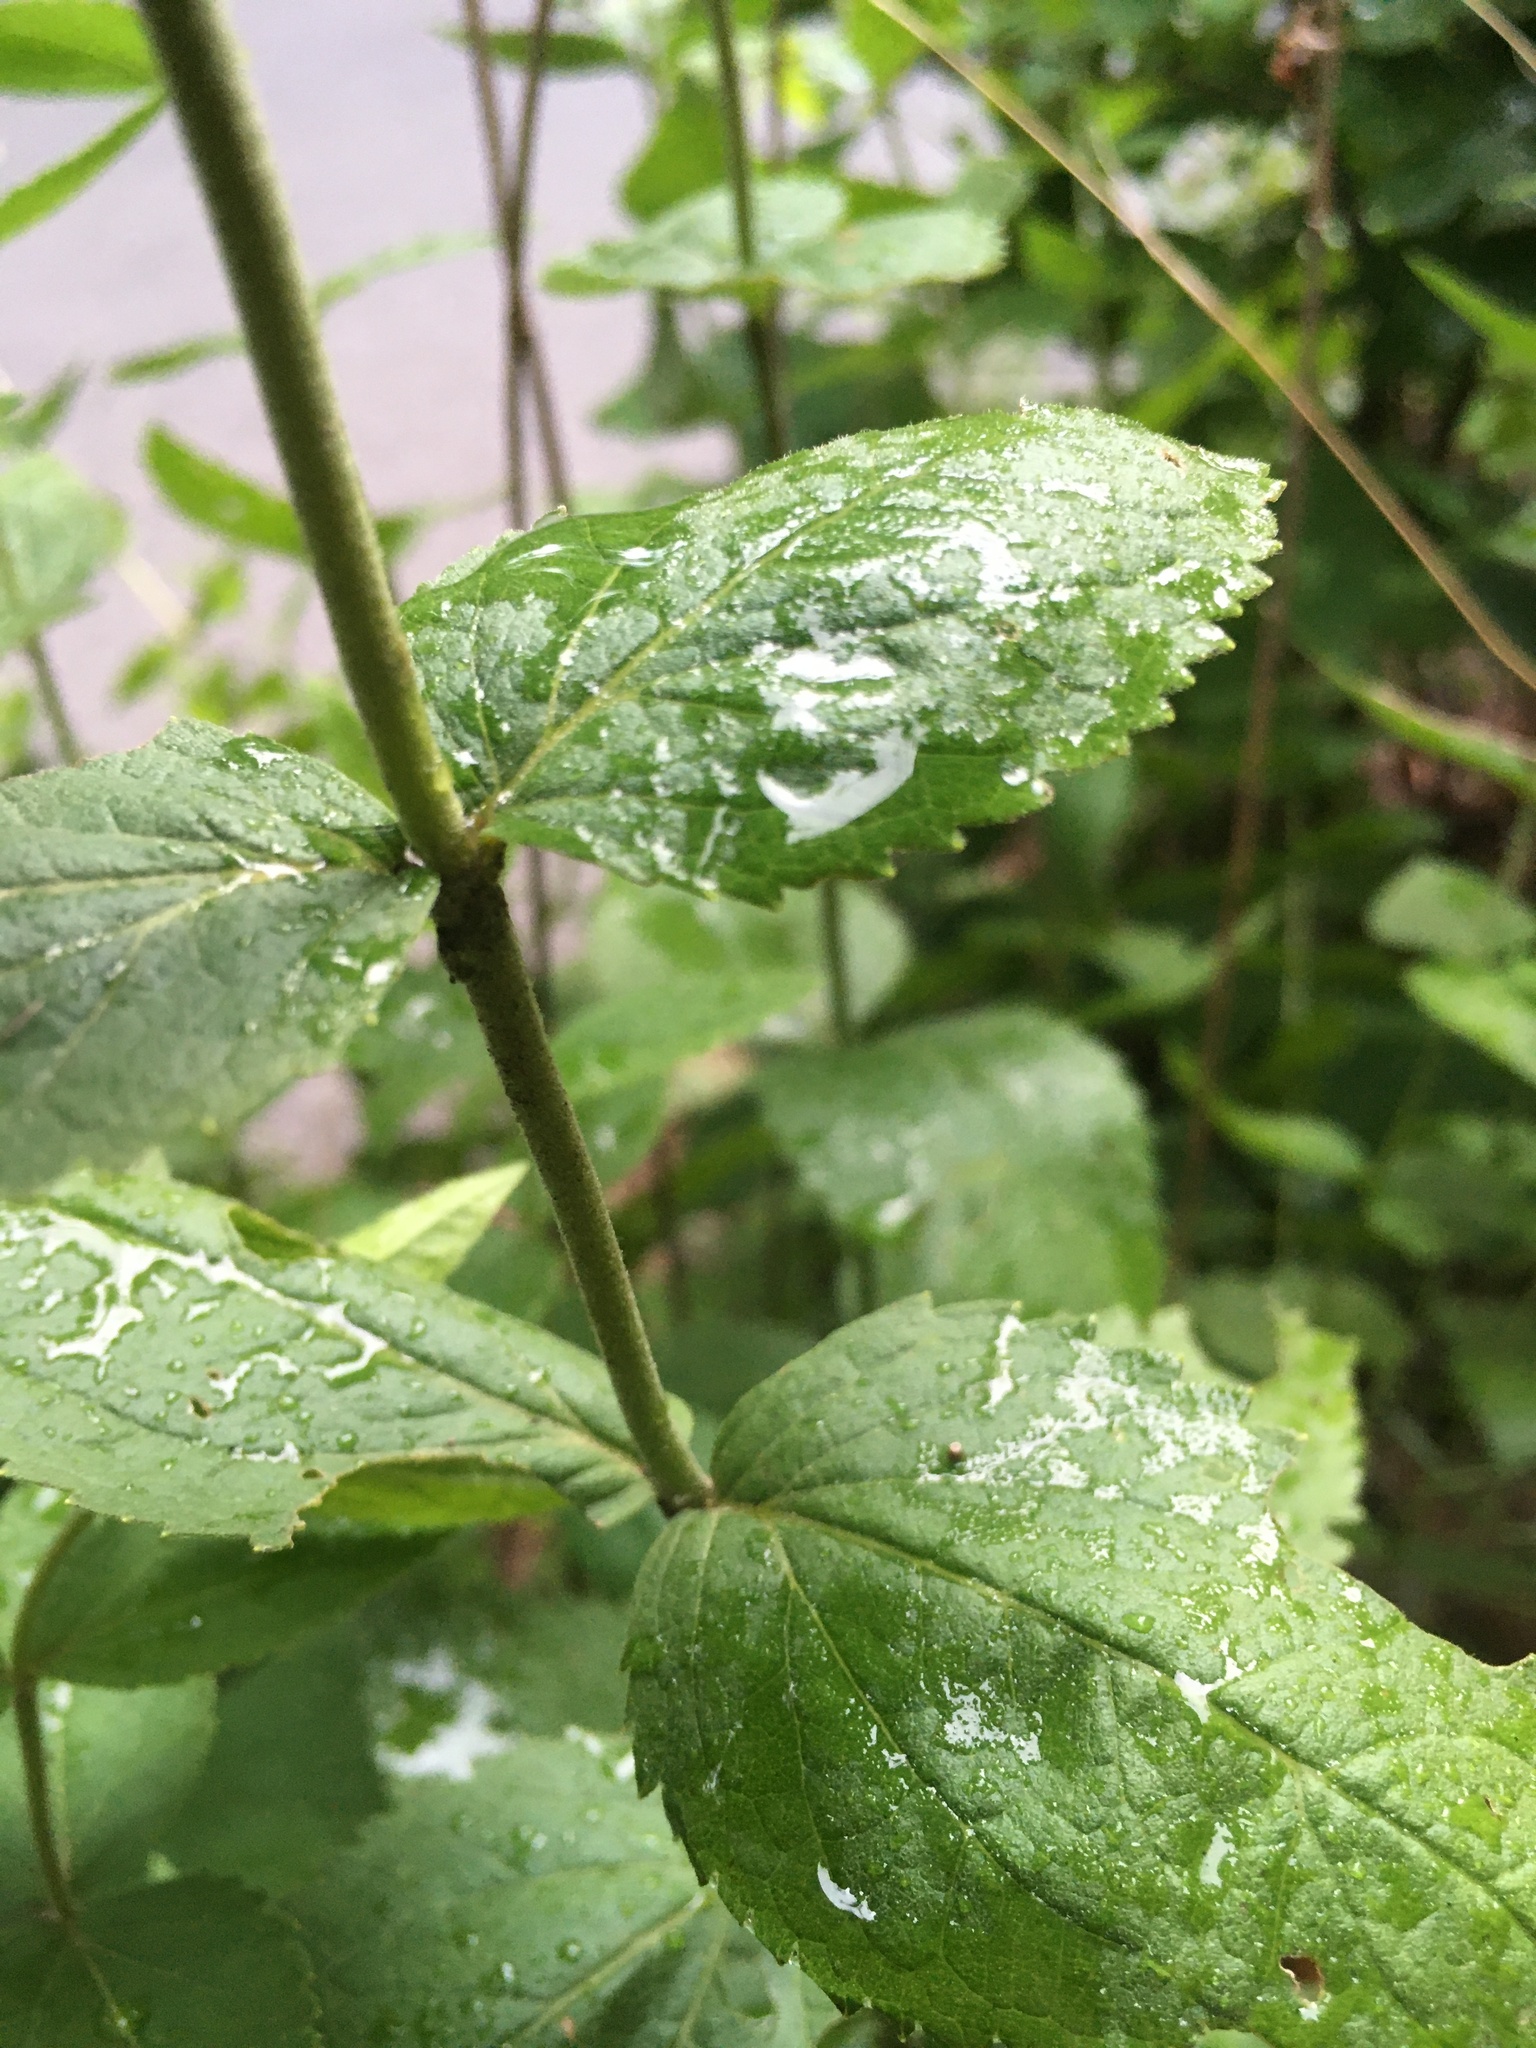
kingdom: Plantae
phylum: Tracheophyta
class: Magnoliopsida
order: Asterales
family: Asteraceae
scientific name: Asteraceae
